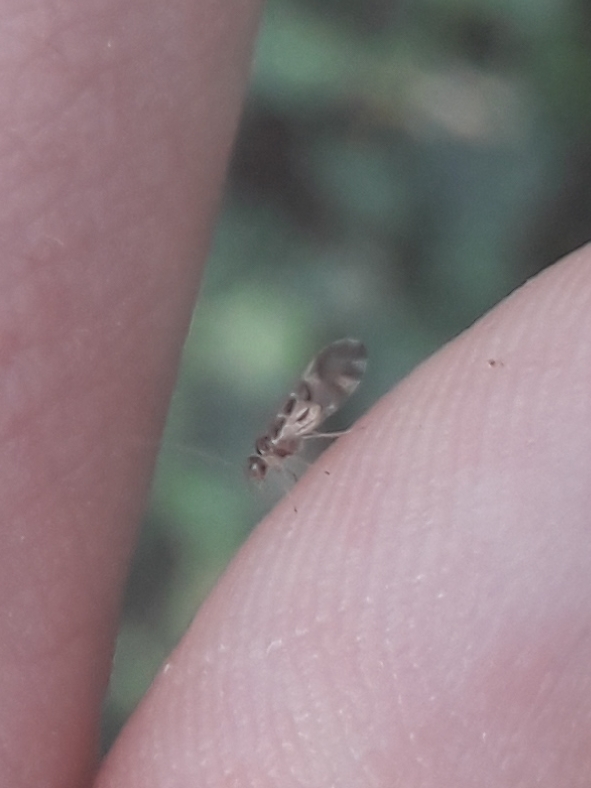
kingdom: Animalia
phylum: Arthropoda
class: Insecta
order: Psocodea
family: Stenopsocidae
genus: Graphopsocus
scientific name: Graphopsocus cruciatus
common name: Lizard bark louse
